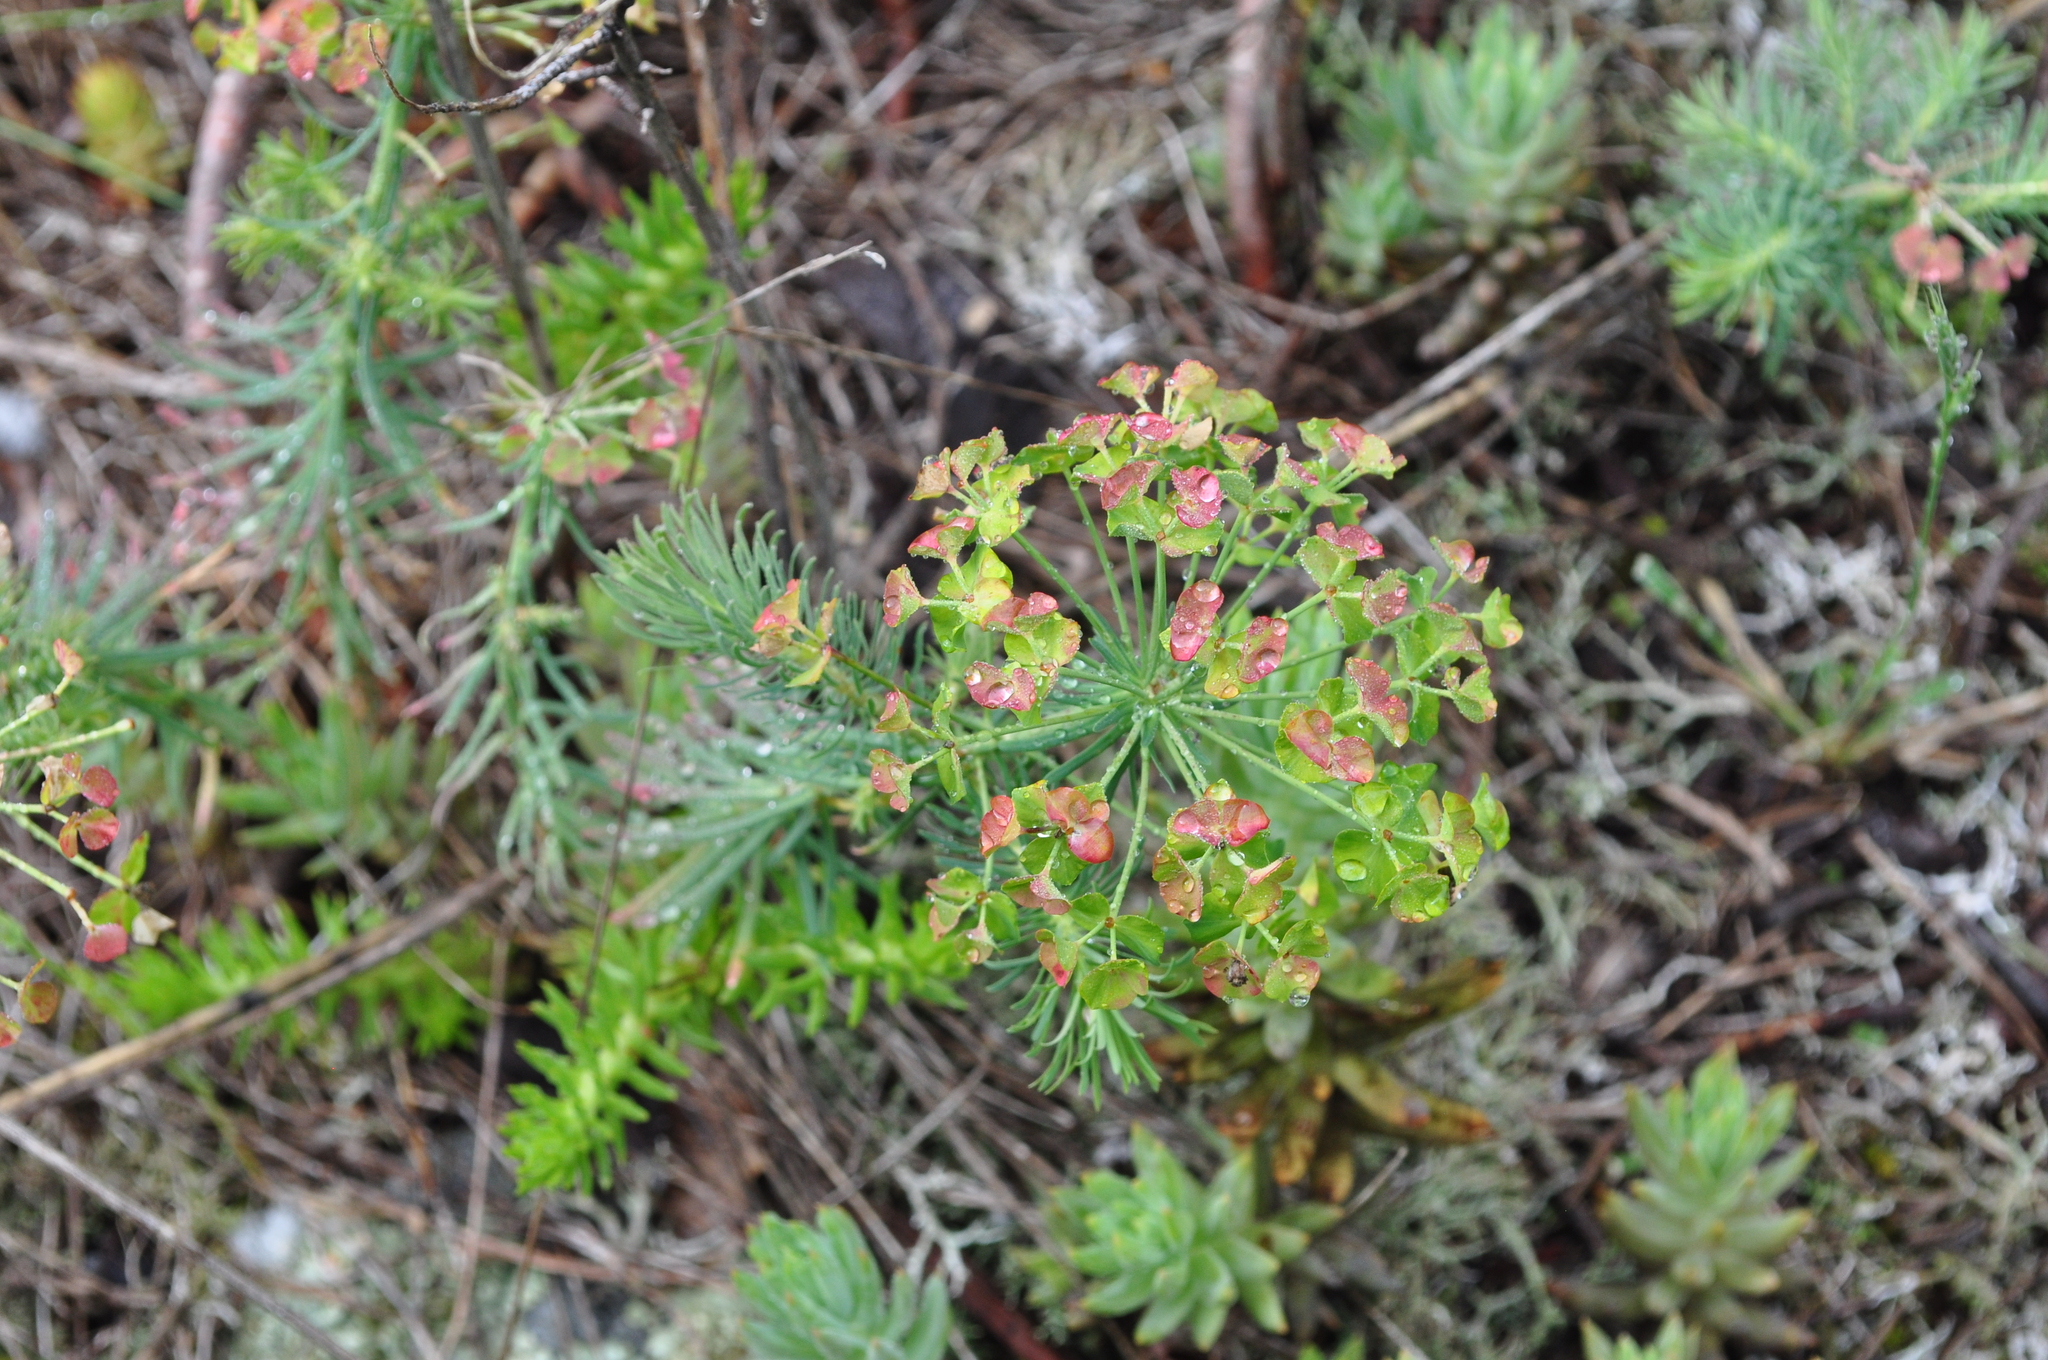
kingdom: Plantae
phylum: Tracheophyta
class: Magnoliopsida
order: Malpighiales
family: Euphorbiaceae
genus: Euphorbia
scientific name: Euphorbia cyparissias
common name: Cypress spurge
